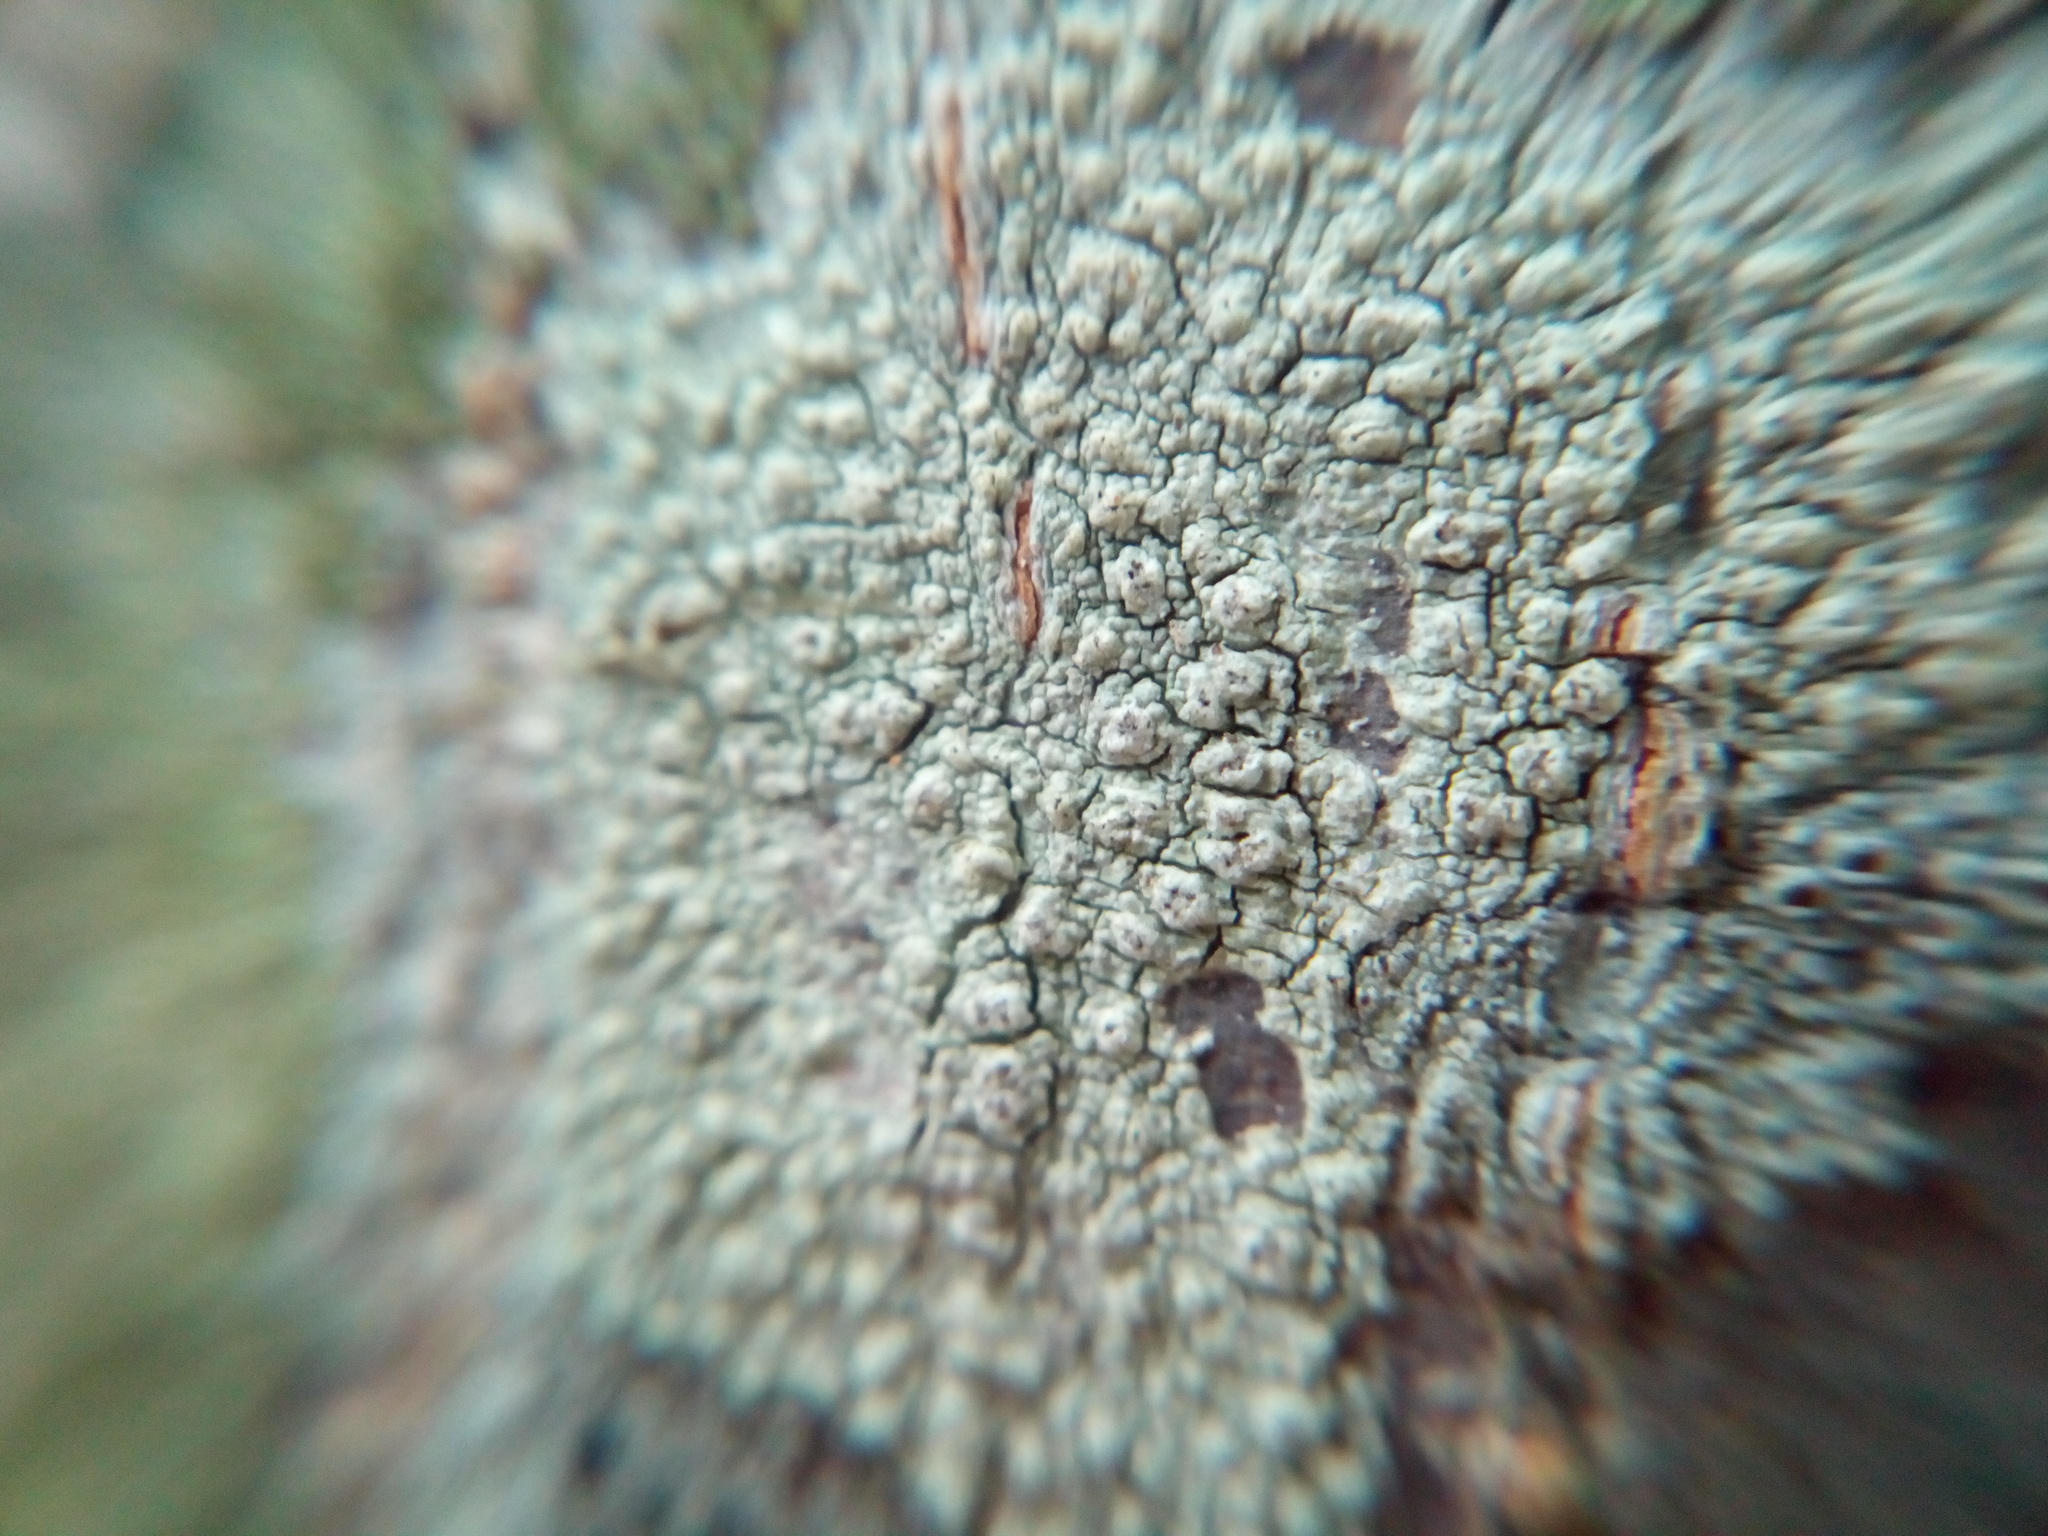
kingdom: Fungi
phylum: Ascomycota
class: Lecanoromycetes
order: Pertusariales
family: Pertusariaceae
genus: Pertusaria
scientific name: Pertusaria pustulata
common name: Branch bumps
